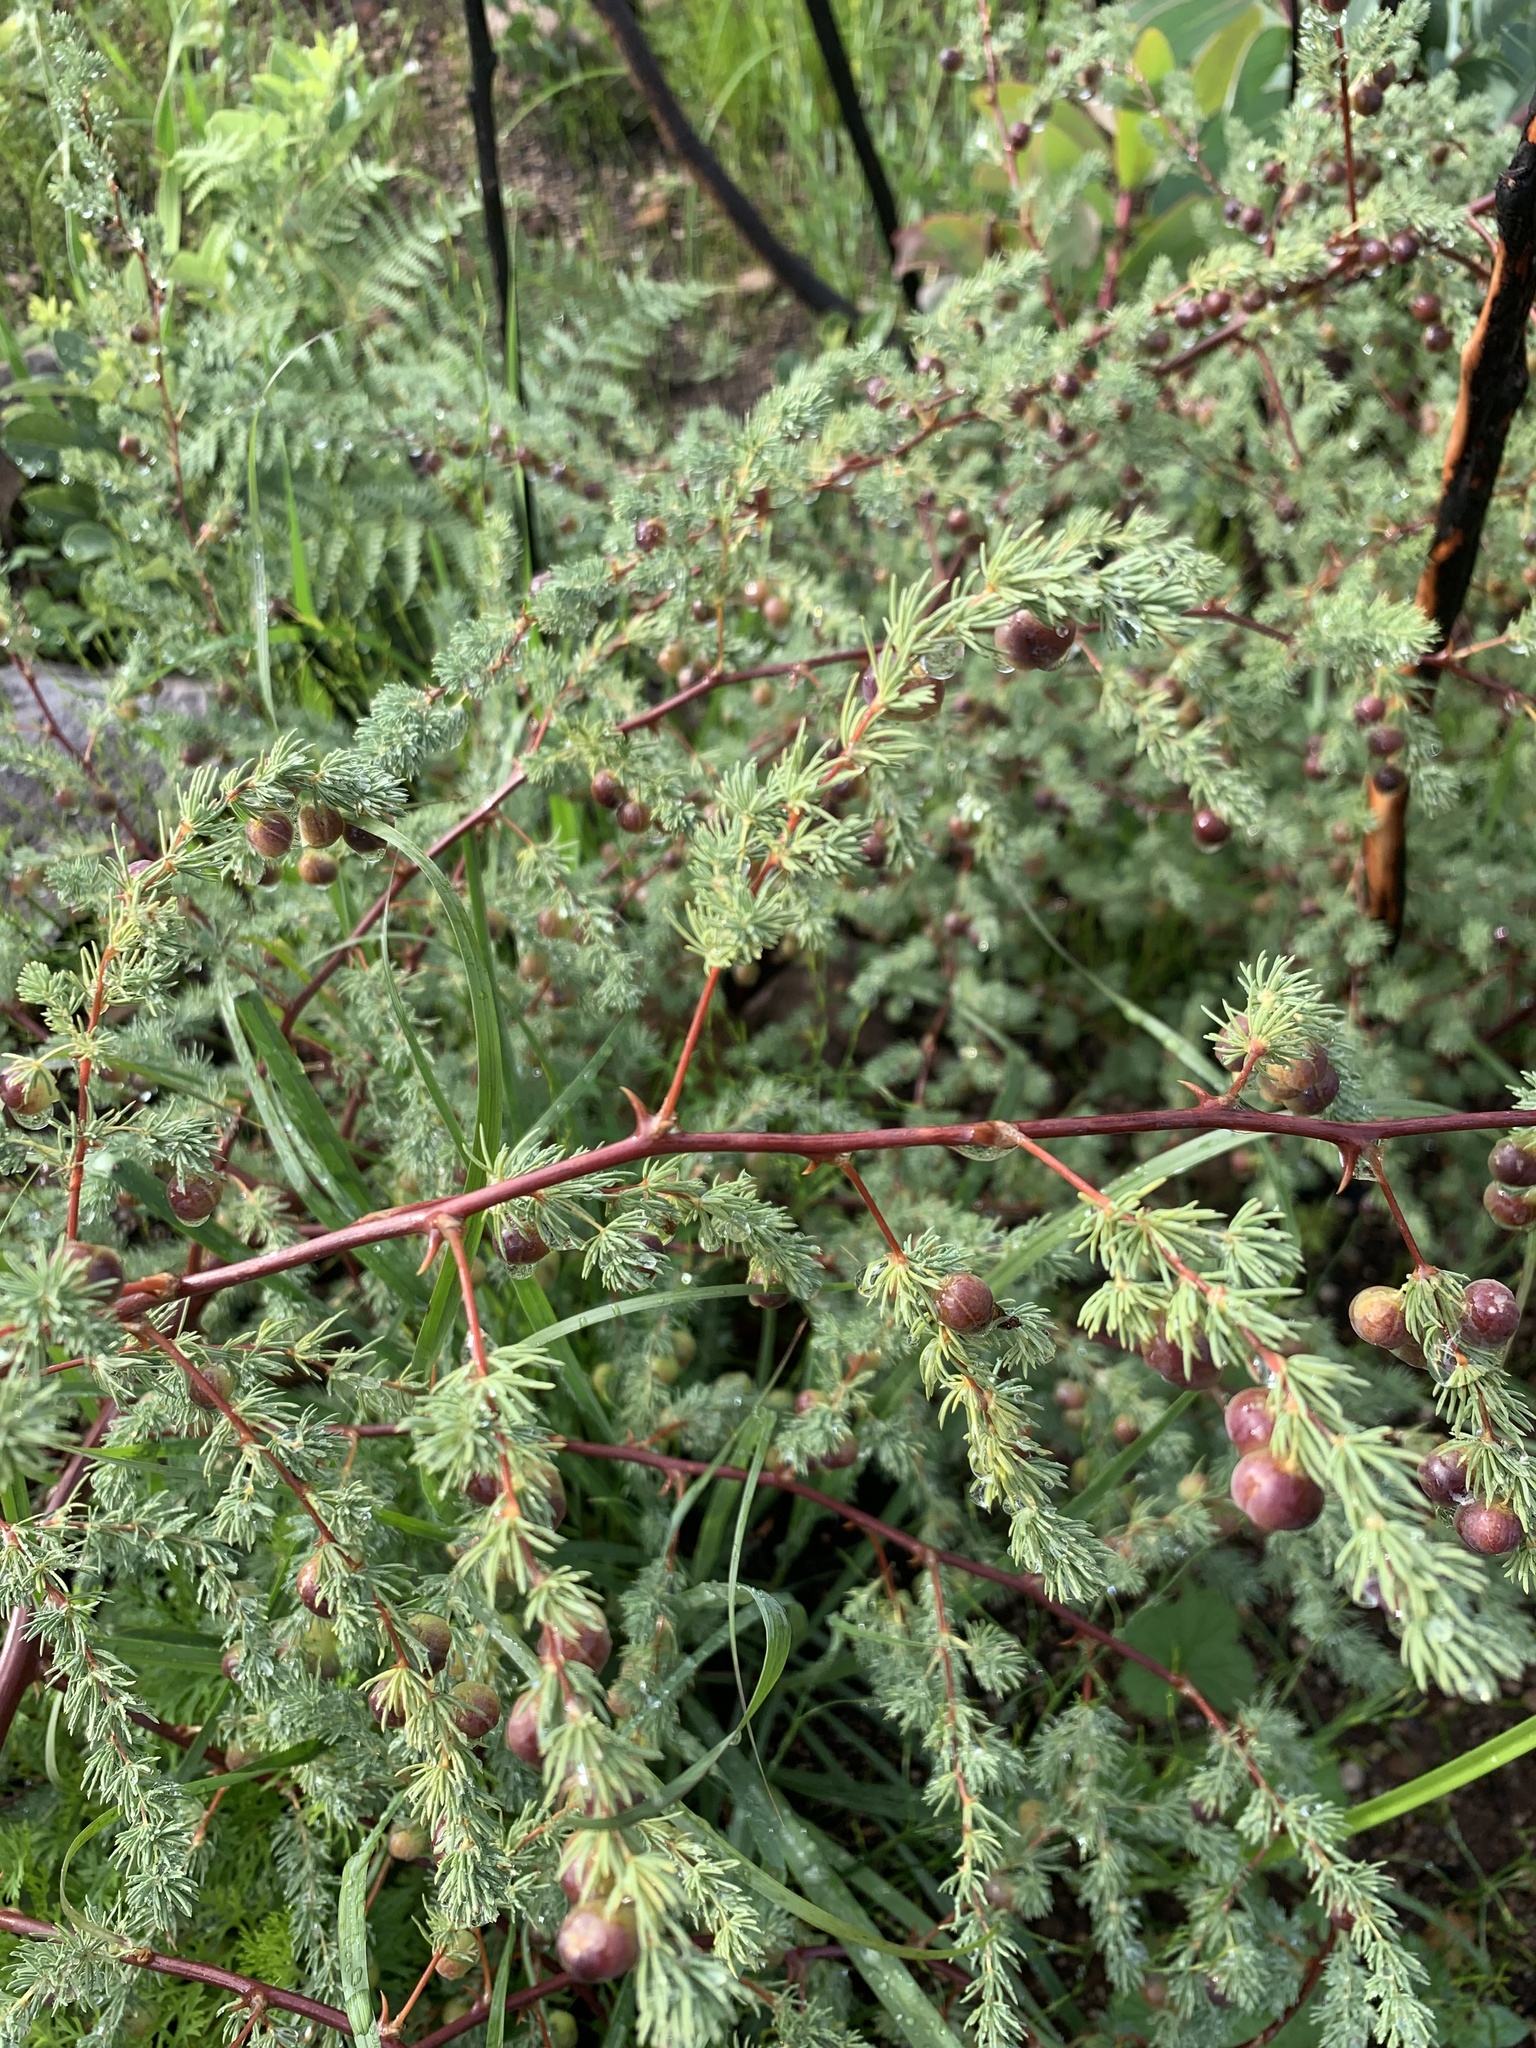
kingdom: Plantae
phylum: Tracheophyta
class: Liliopsida
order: Asparagales
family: Asparagaceae
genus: Asparagus
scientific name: Asparagus rubicundus
